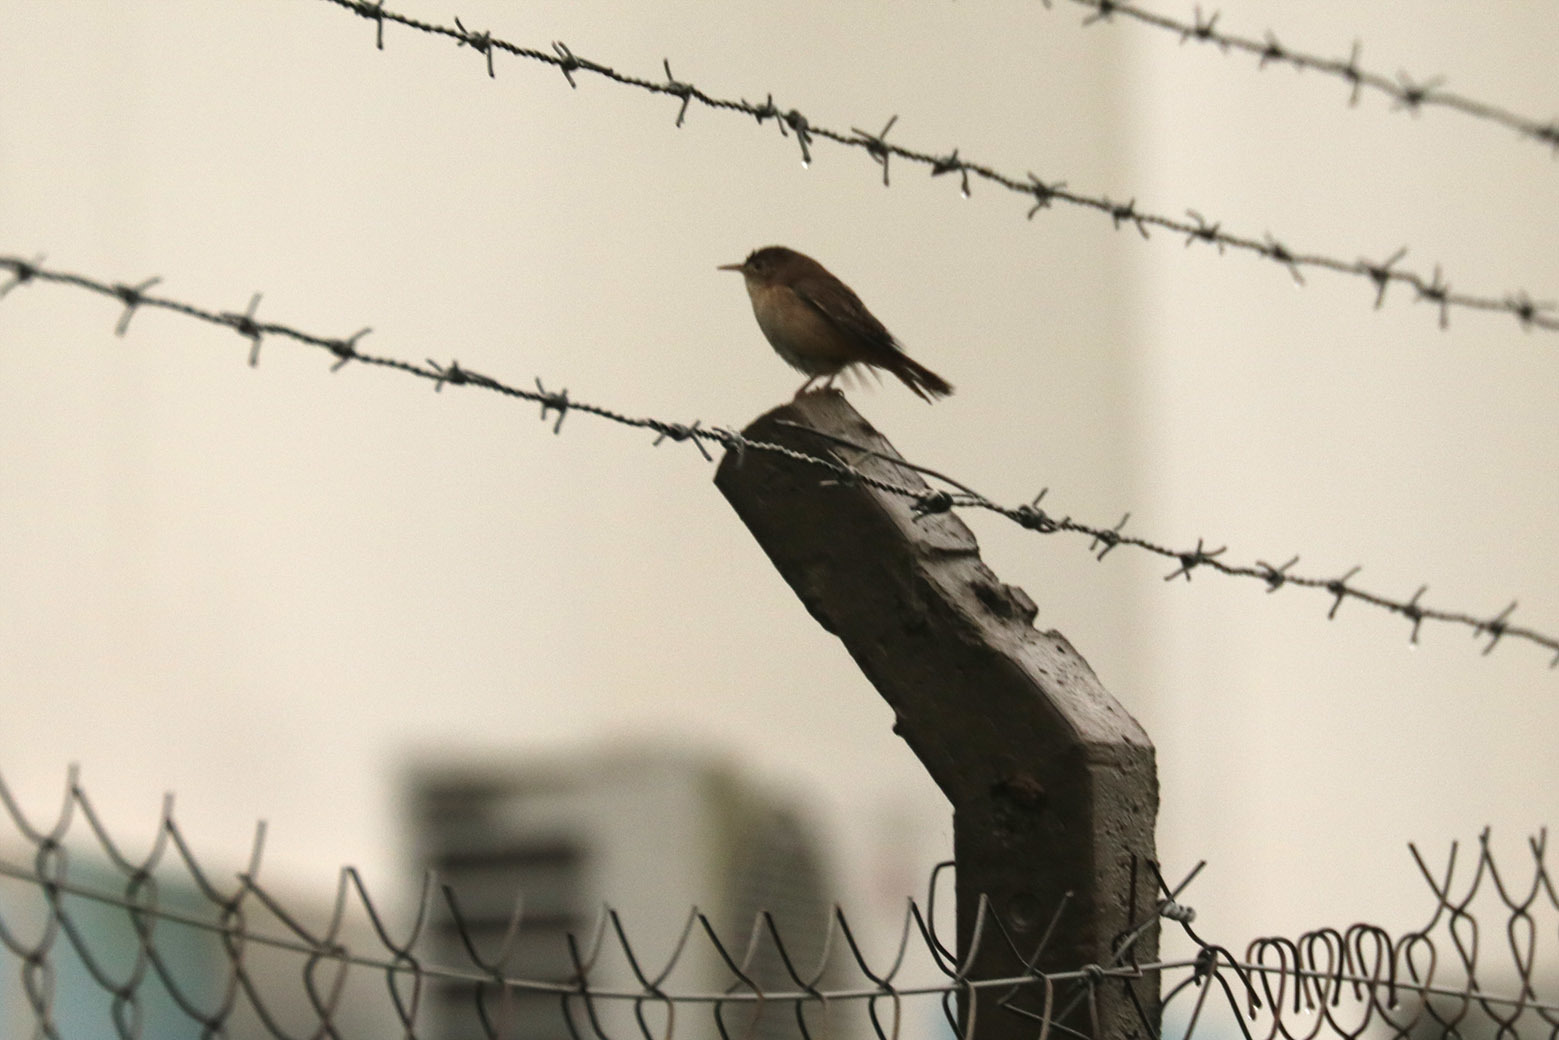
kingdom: Animalia
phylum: Chordata
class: Aves
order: Passeriformes
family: Troglodytidae
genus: Troglodytes
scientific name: Troglodytes aedon
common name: House wren
